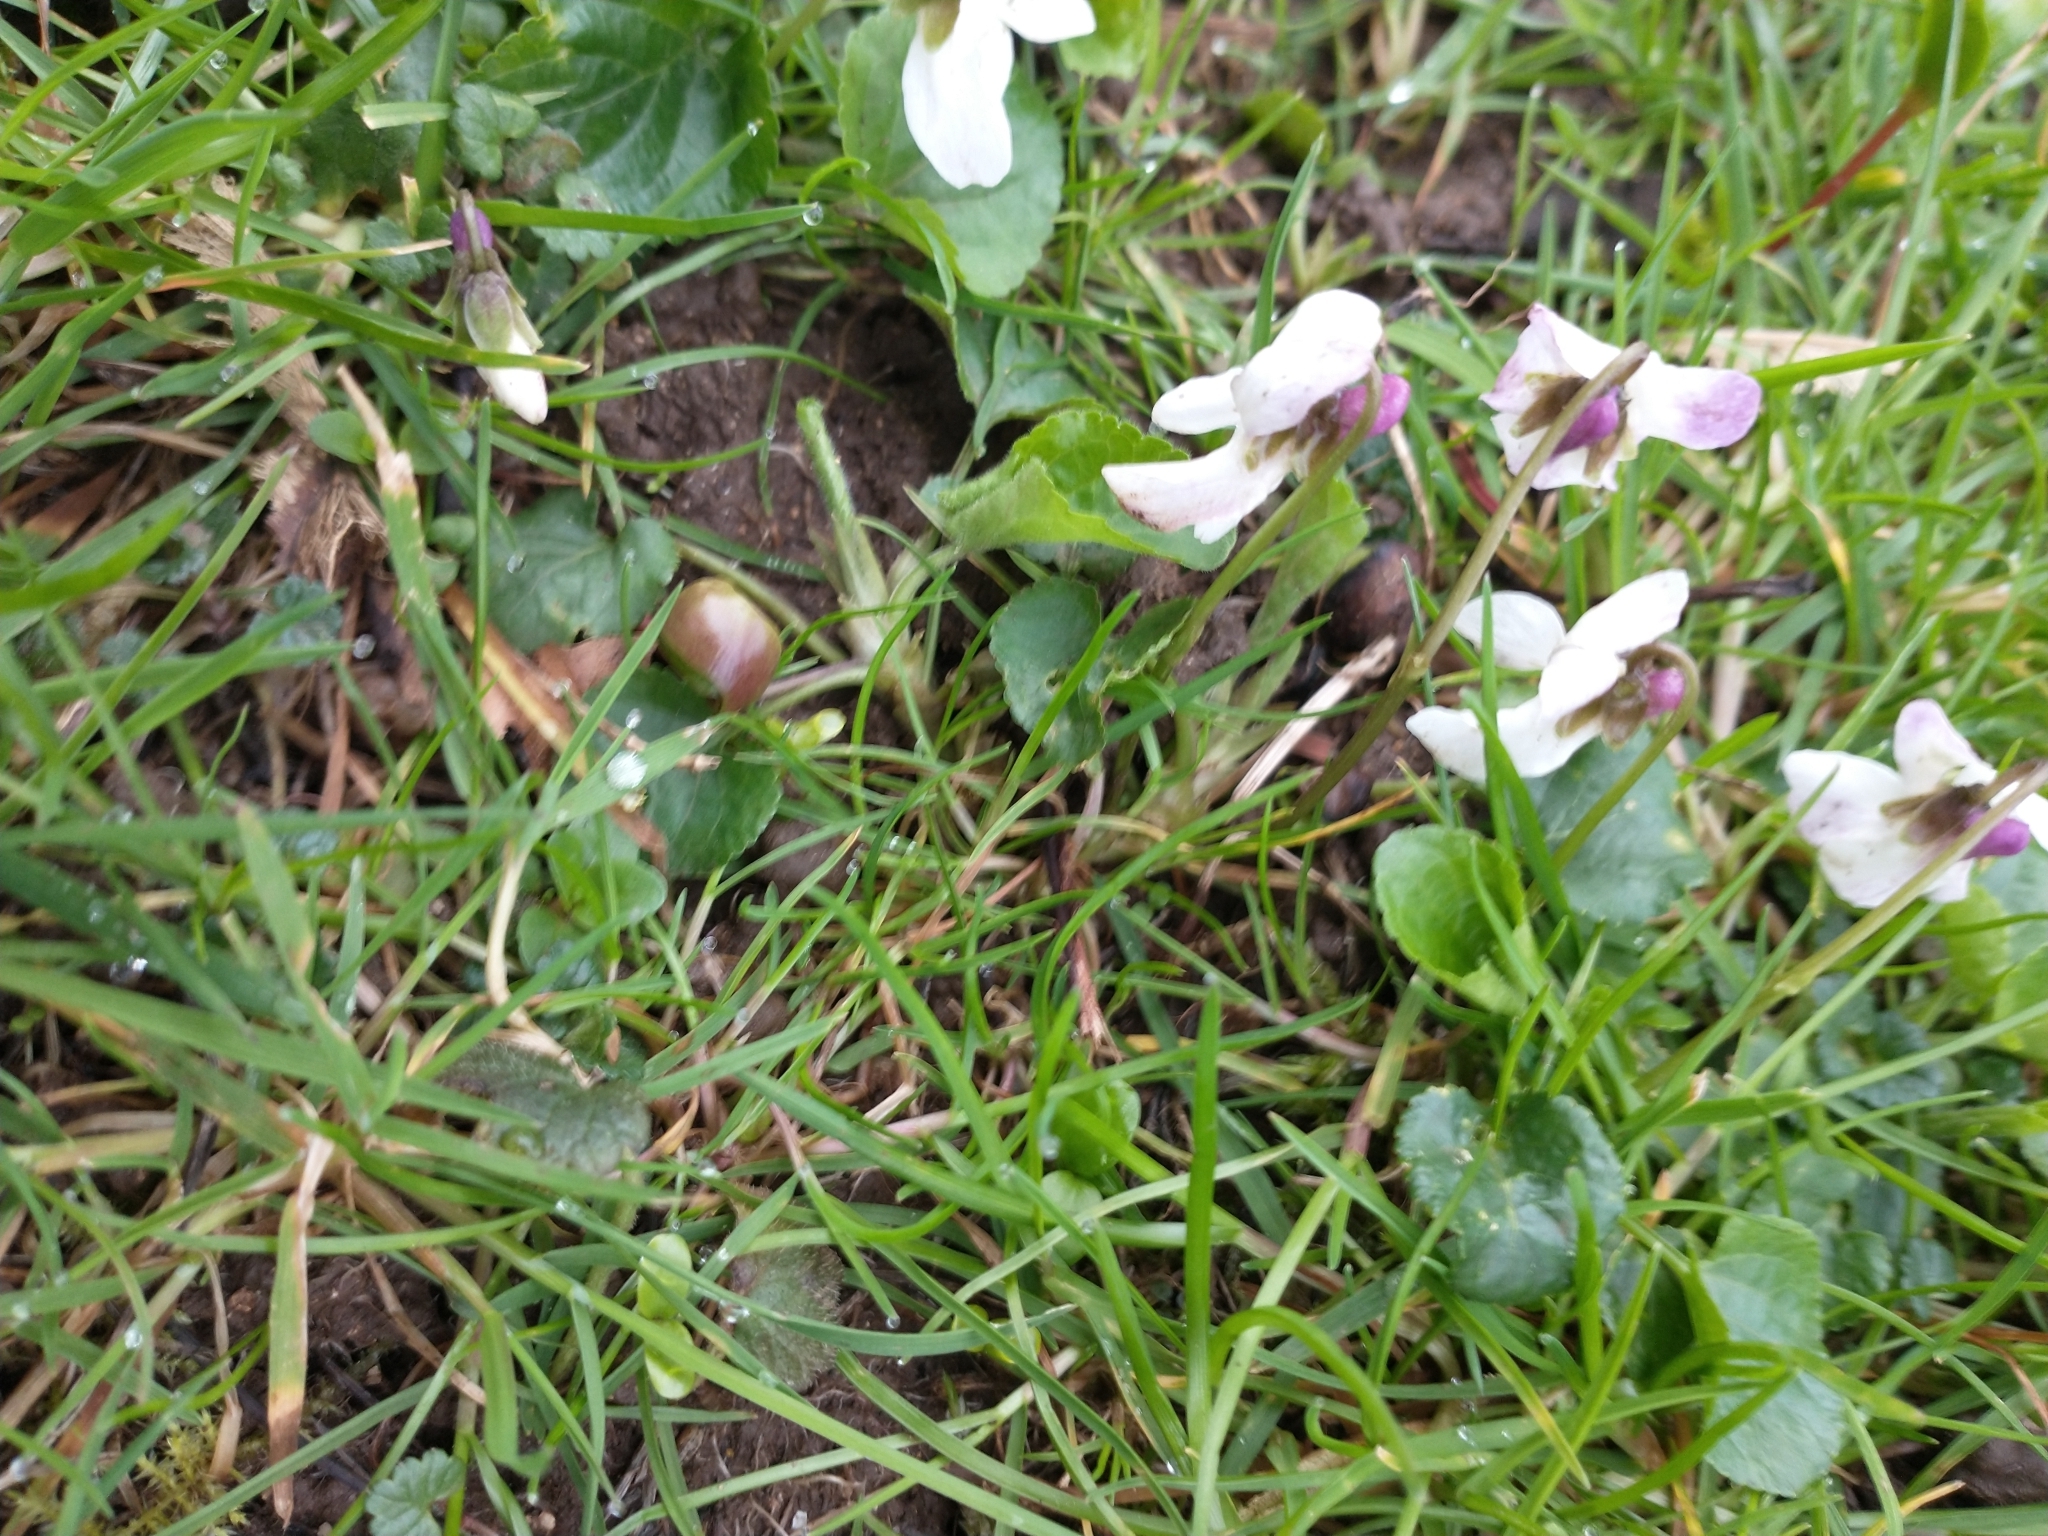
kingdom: Plantae
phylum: Tracheophyta
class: Magnoliopsida
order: Malpighiales
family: Violaceae
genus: Viola
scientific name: Viola odorata
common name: Sweet violet
